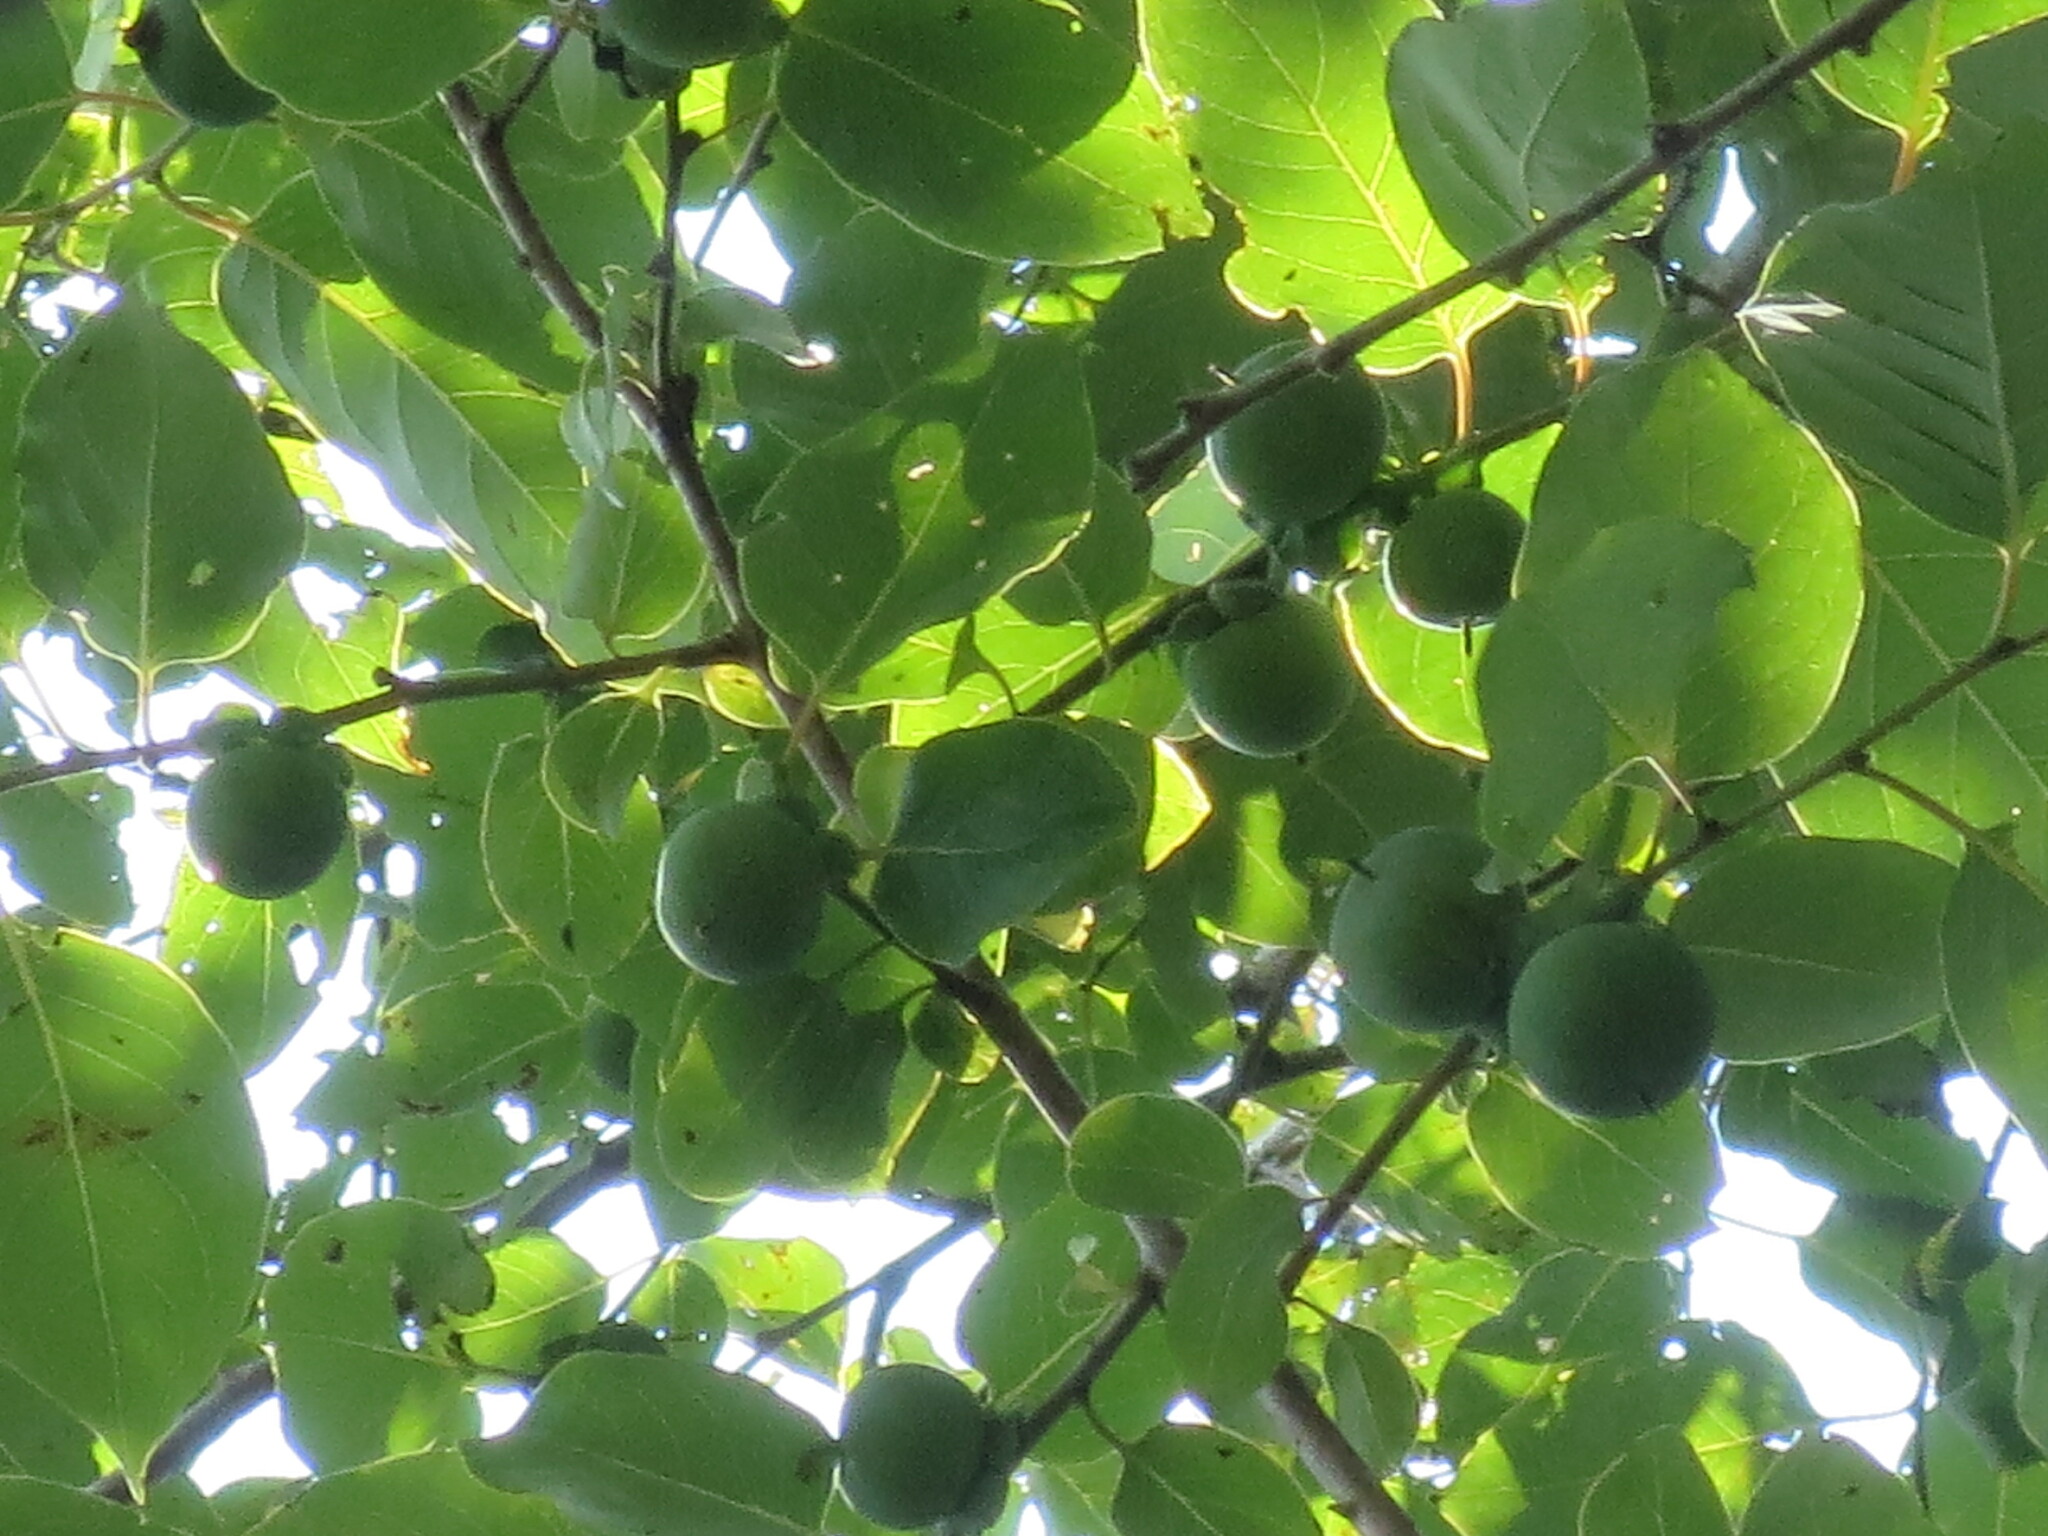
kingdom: Plantae
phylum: Tracheophyta
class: Magnoliopsida
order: Ericales
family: Ebenaceae
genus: Diospyros
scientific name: Diospyros virginiana
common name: Persimmon
